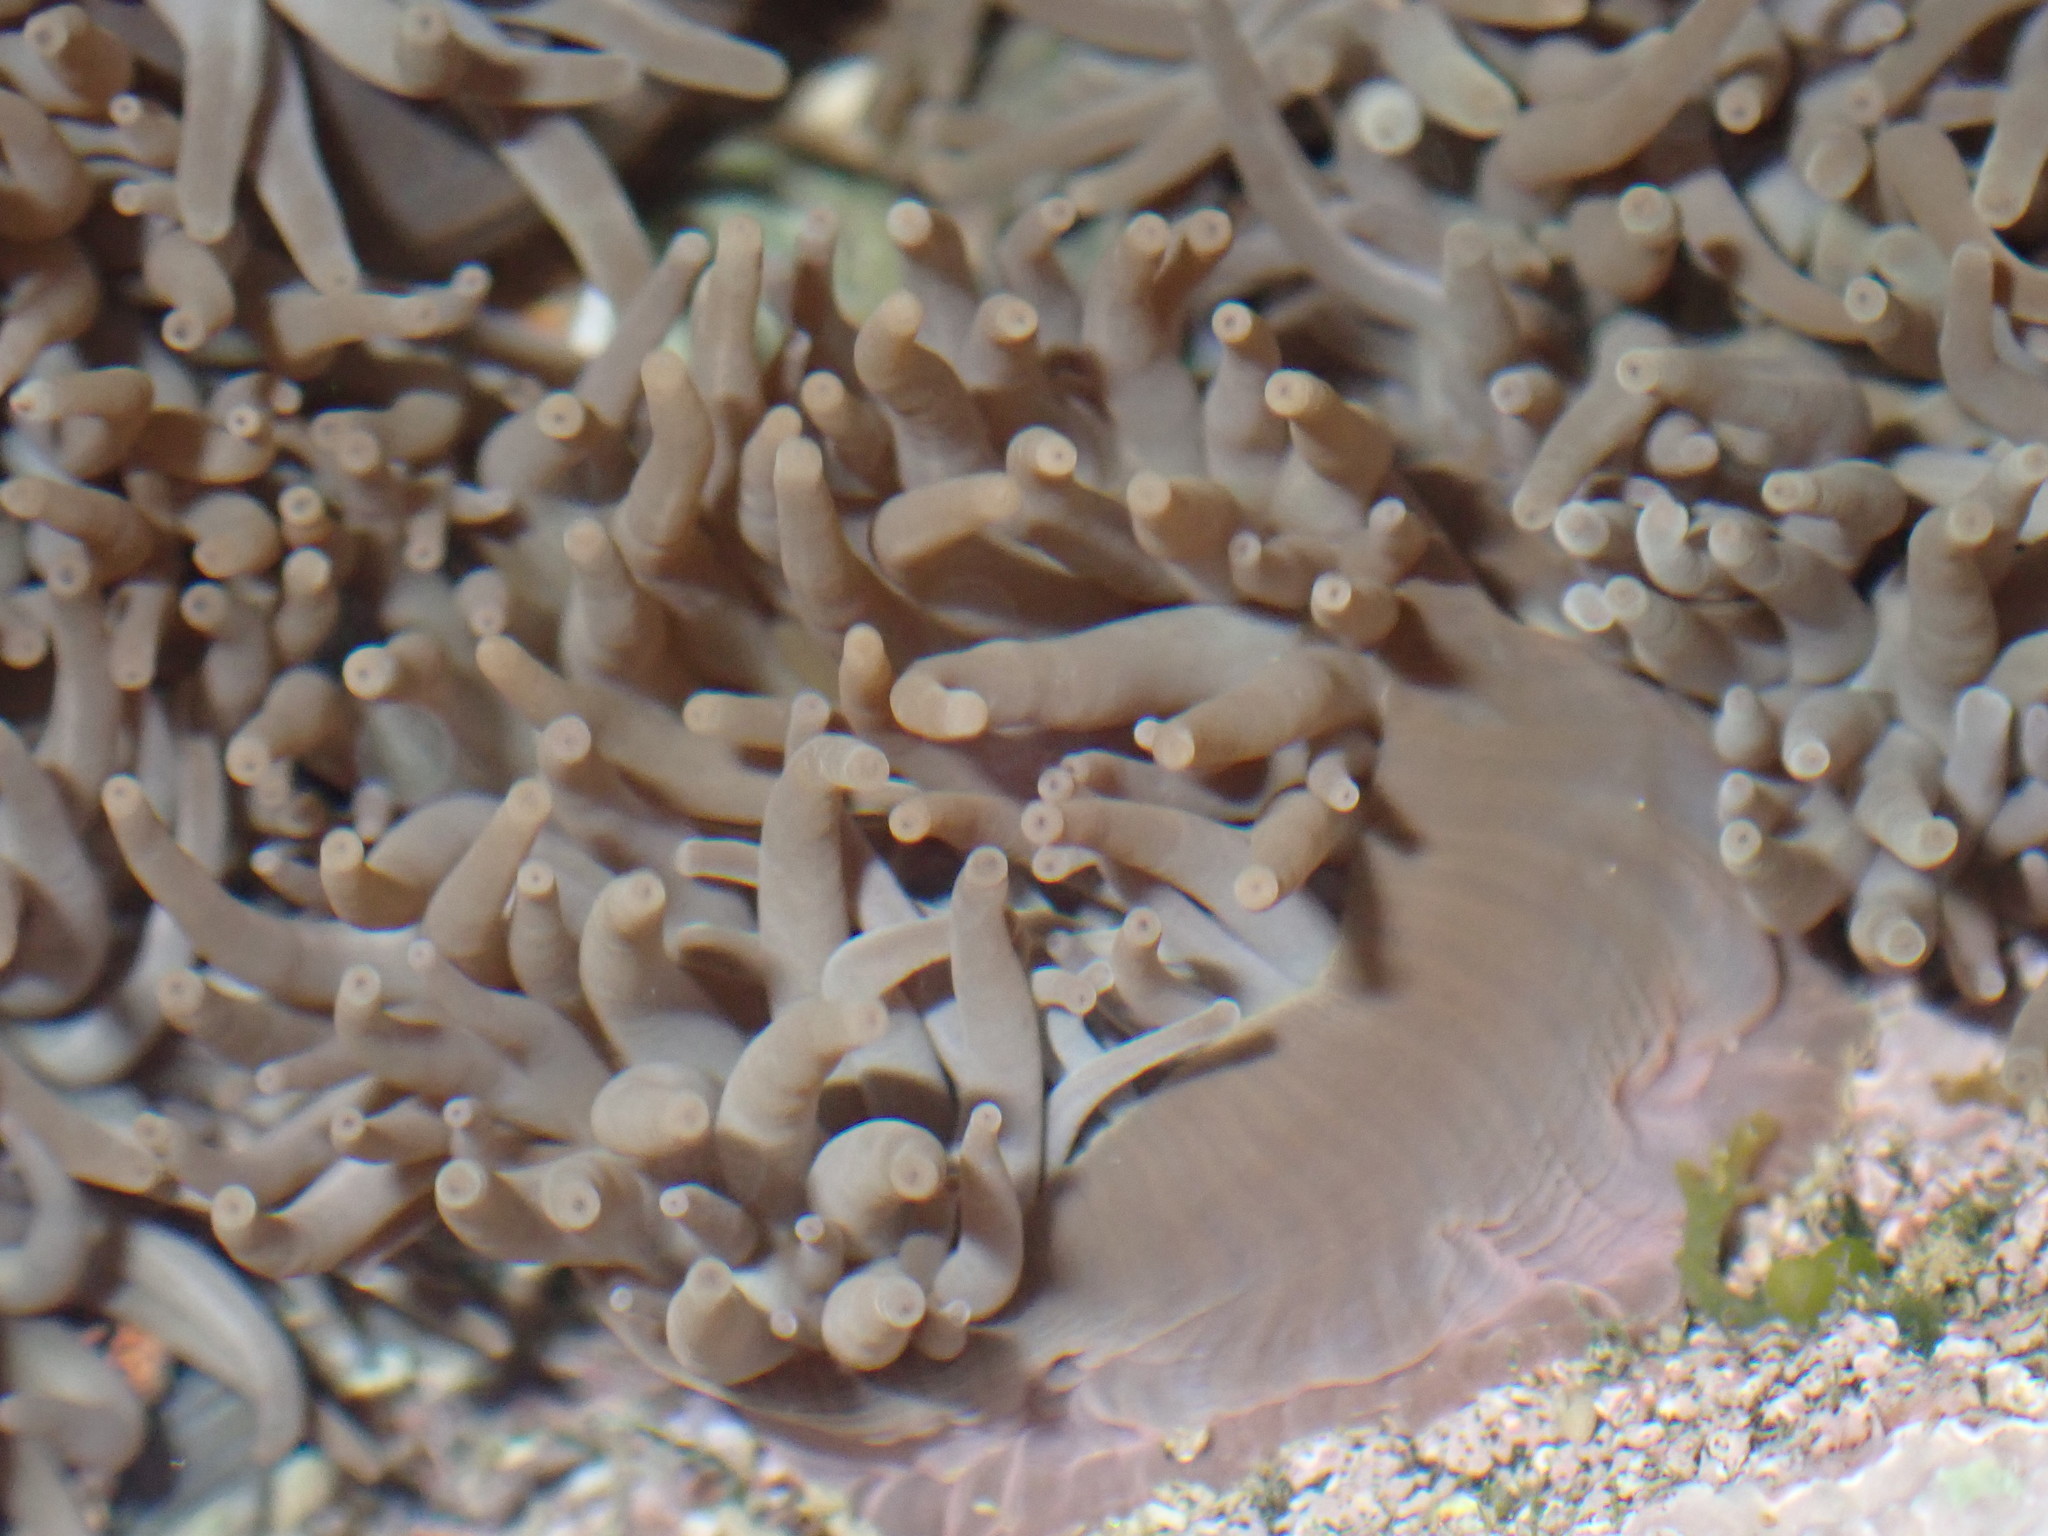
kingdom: Animalia
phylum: Cnidaria
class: Anthozoa
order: Actiniaria
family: Actiniidae
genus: Anemonia
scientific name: Anemonia viridis
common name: Snakelocks anemone
